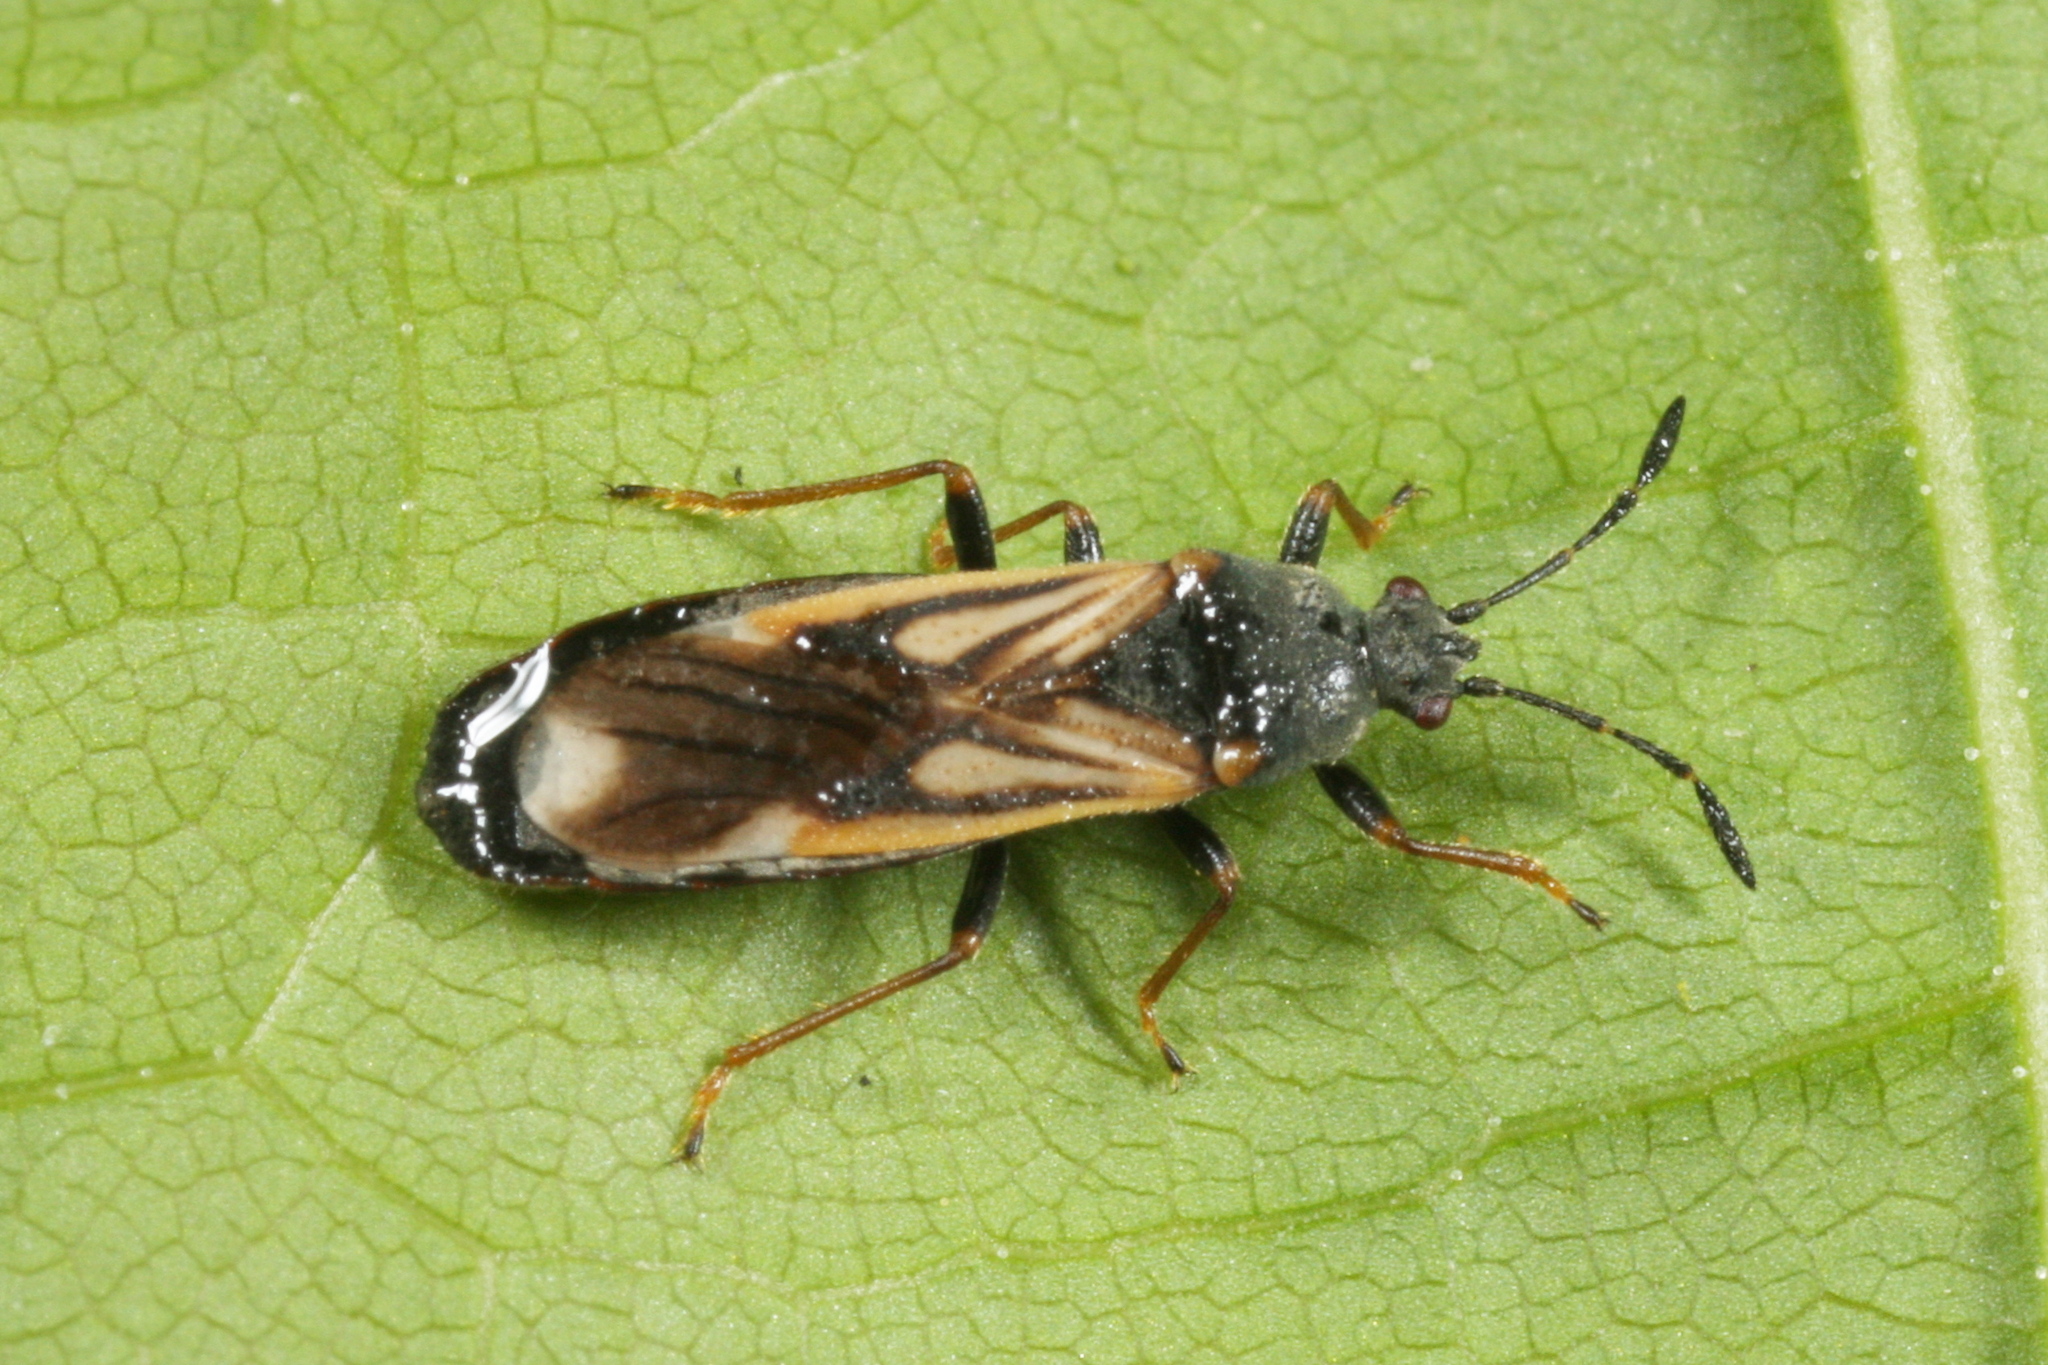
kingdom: Animalia
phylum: Arthropoda
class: Insecta
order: Hemiptera
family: Blissidae
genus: Ischnodemus
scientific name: Ischnodemus sabuleti
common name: European cinchbug
